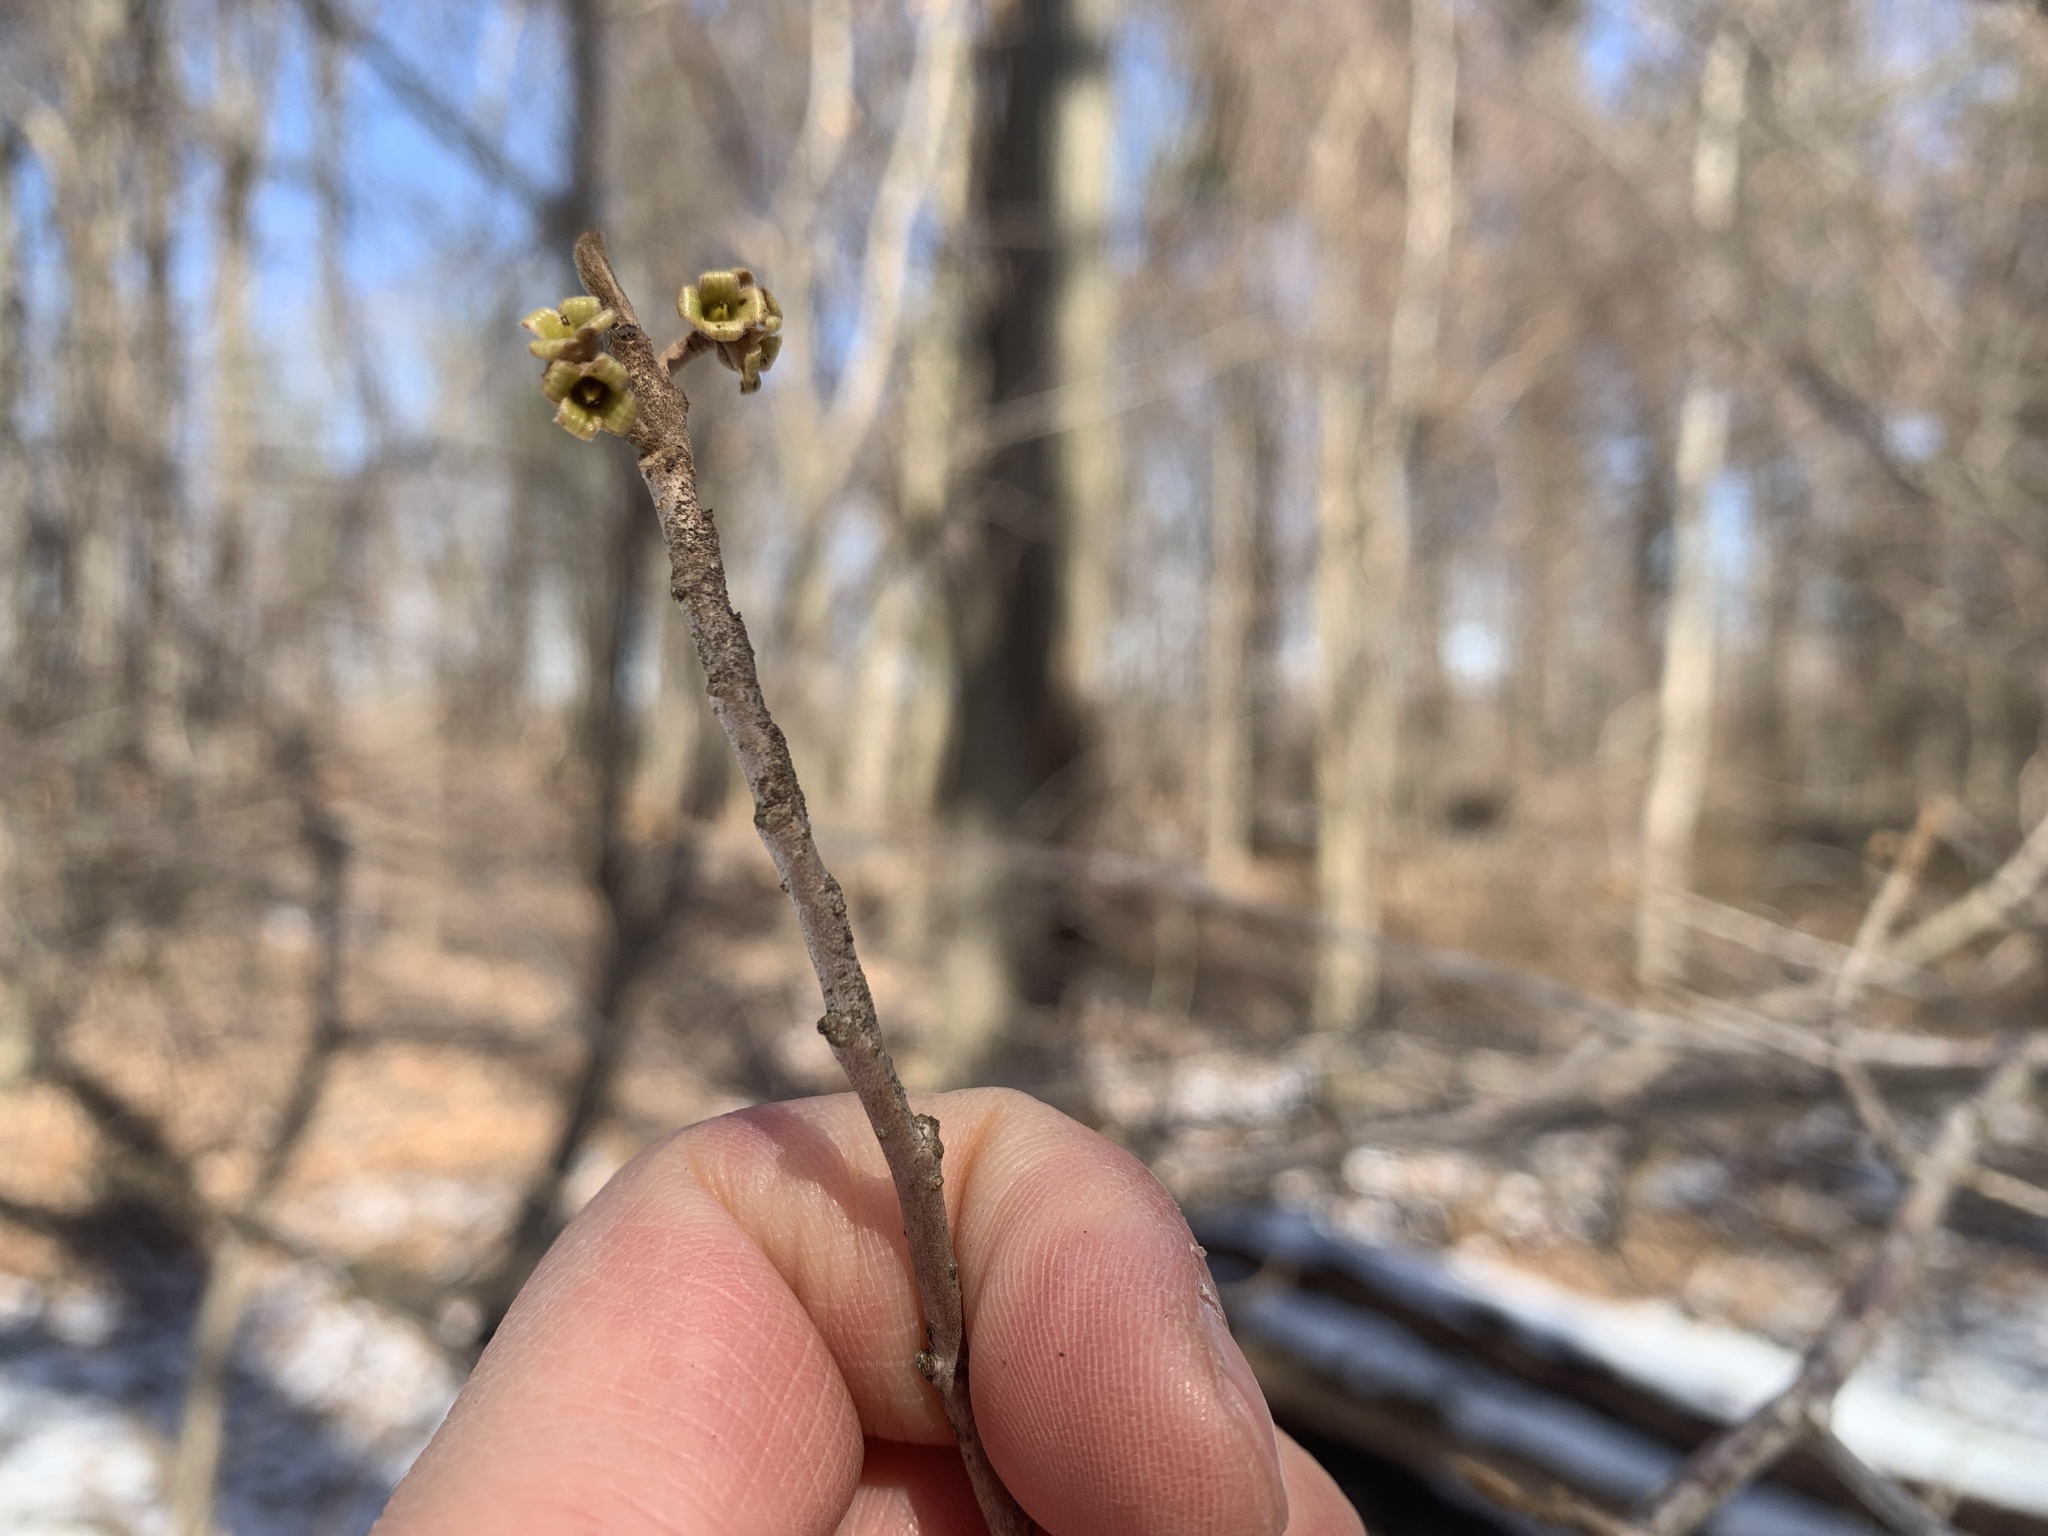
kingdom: Plantae
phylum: Tracheophyta
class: Magnoliopsida
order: Saxifragales
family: Hamamelidaceae
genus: Hamamelis
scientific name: Hamamelis virginiana
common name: Witch-hazel
